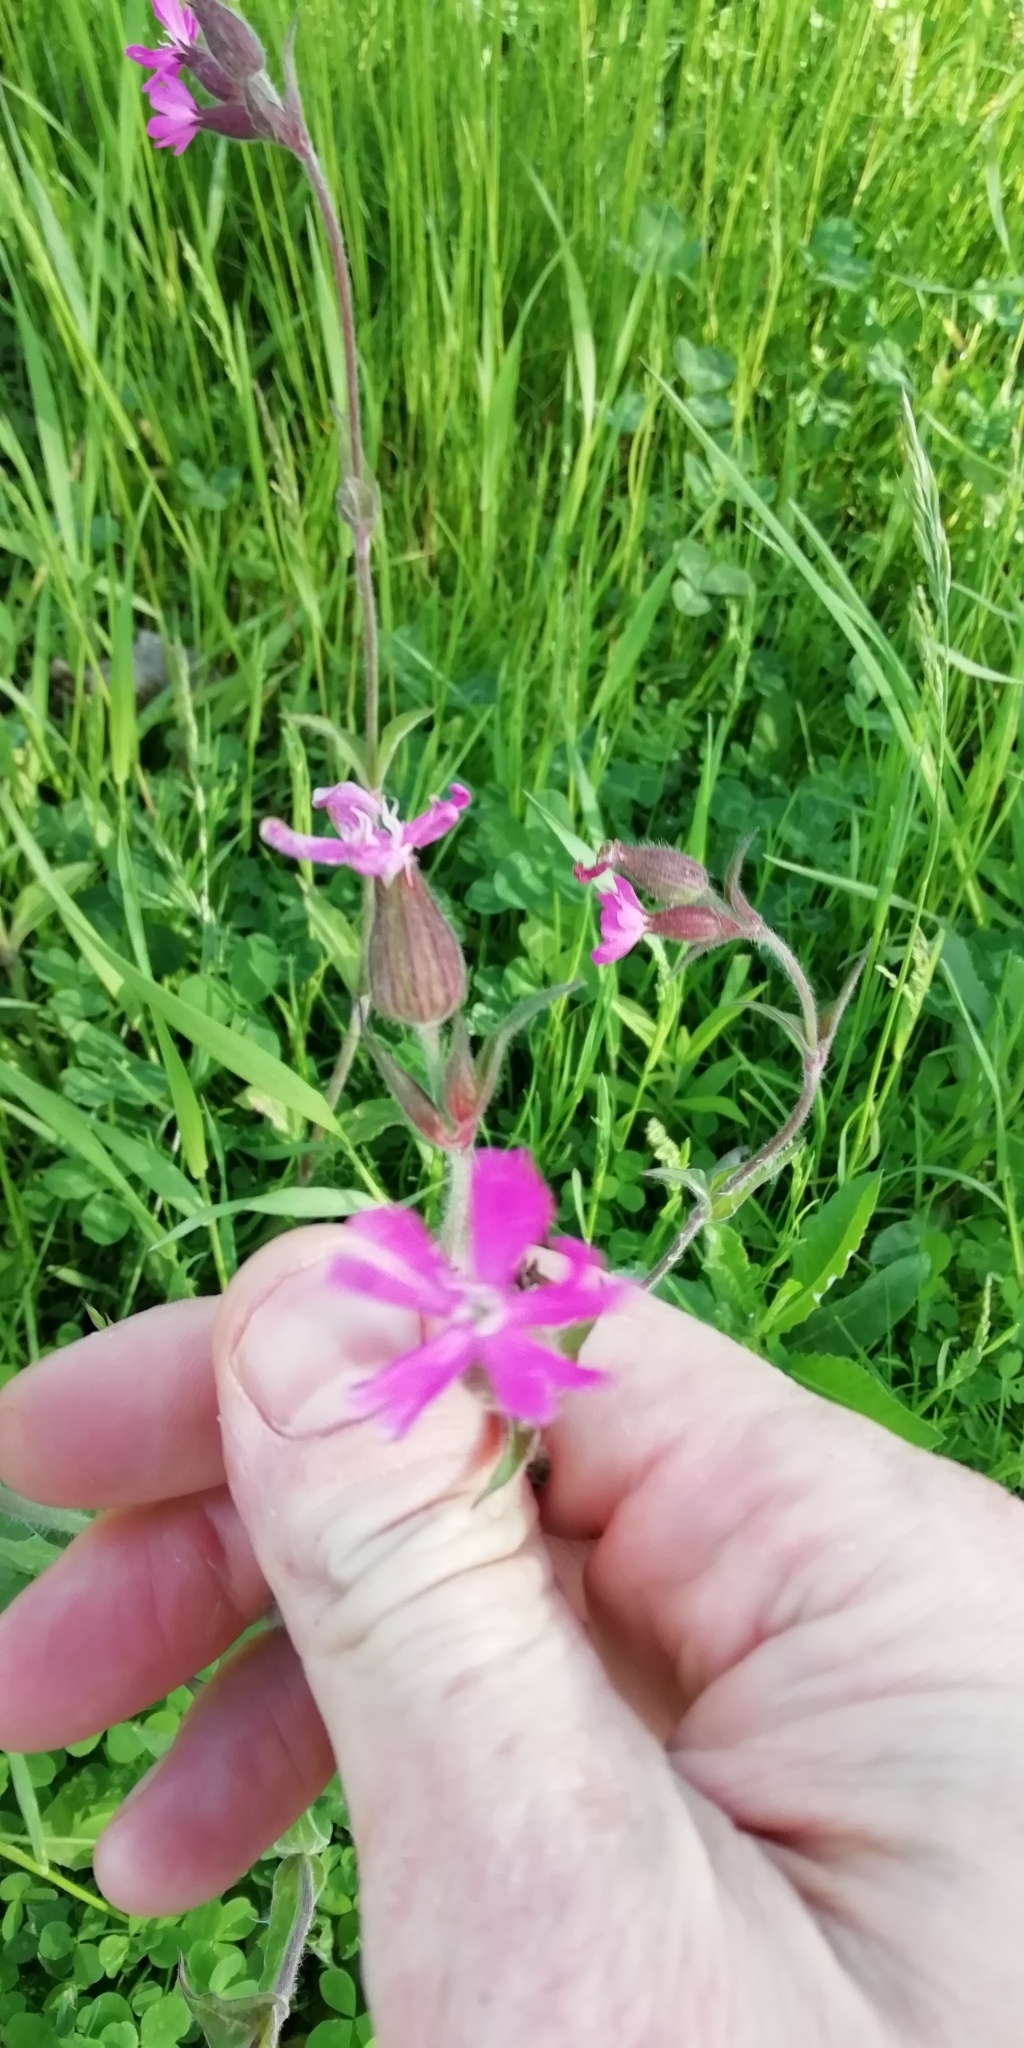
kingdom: Plantae
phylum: Tracheophyta
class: Magnoliopsida
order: Caryophyllales
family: Caryophyllaceae
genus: Silene
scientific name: Silene dioica
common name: Red campion
